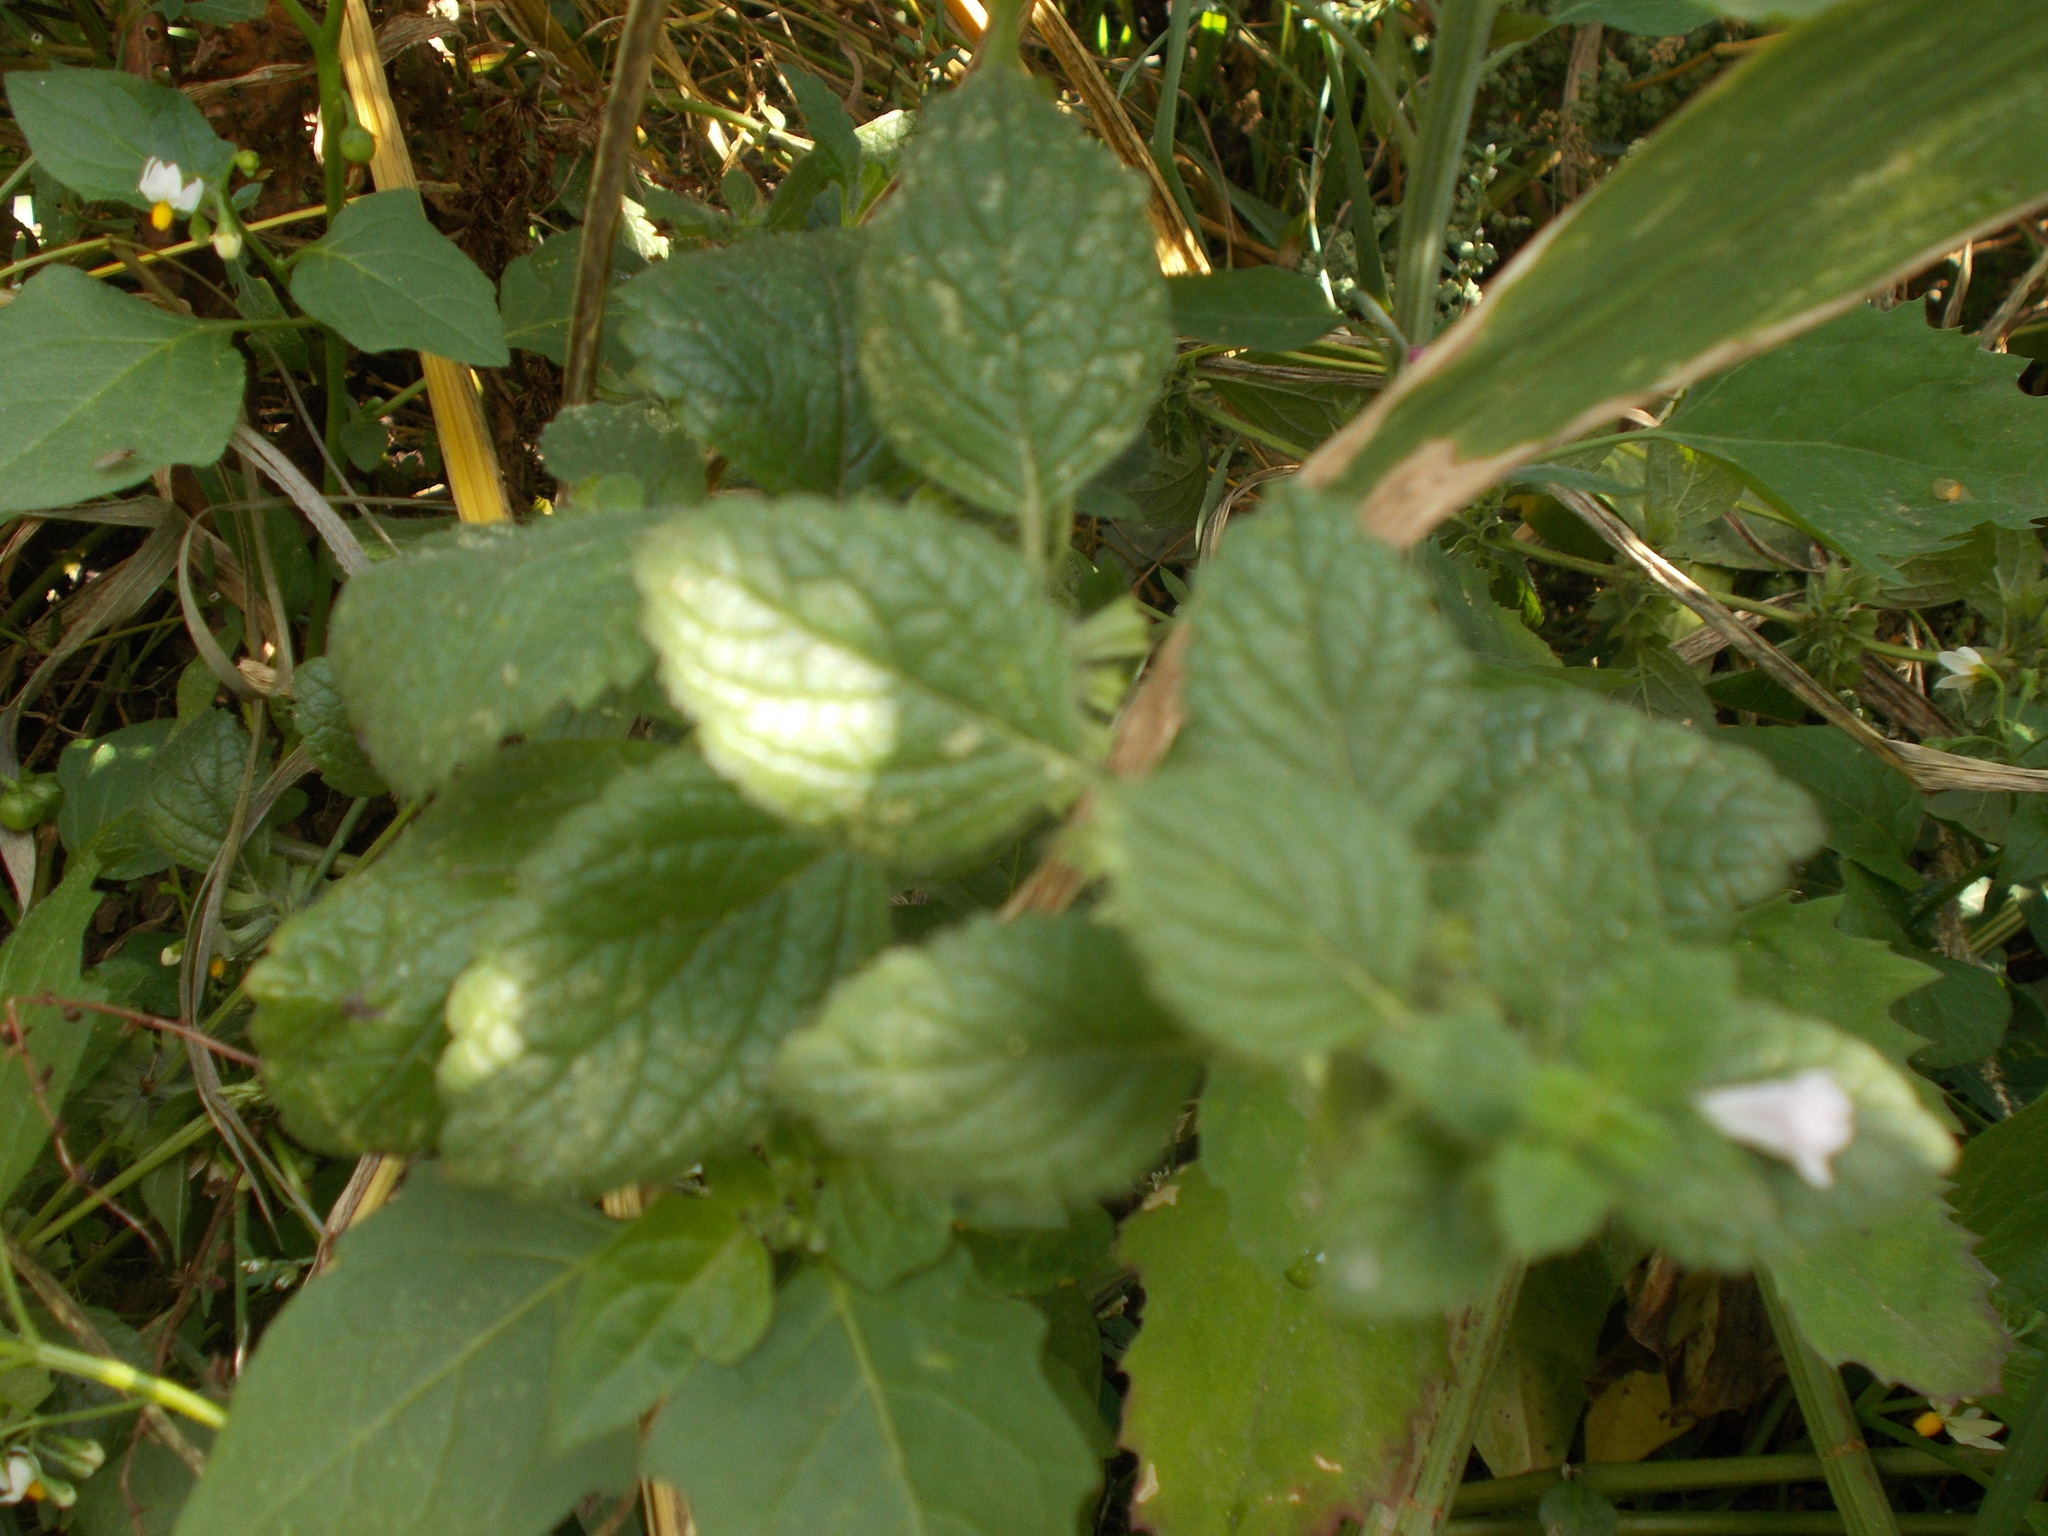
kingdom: Plantae
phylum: Tracheophyta
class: Magnoliopsida
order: Lamiales
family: Lamiaceae
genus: Melissa
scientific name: Melissa officinalis
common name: Balm
